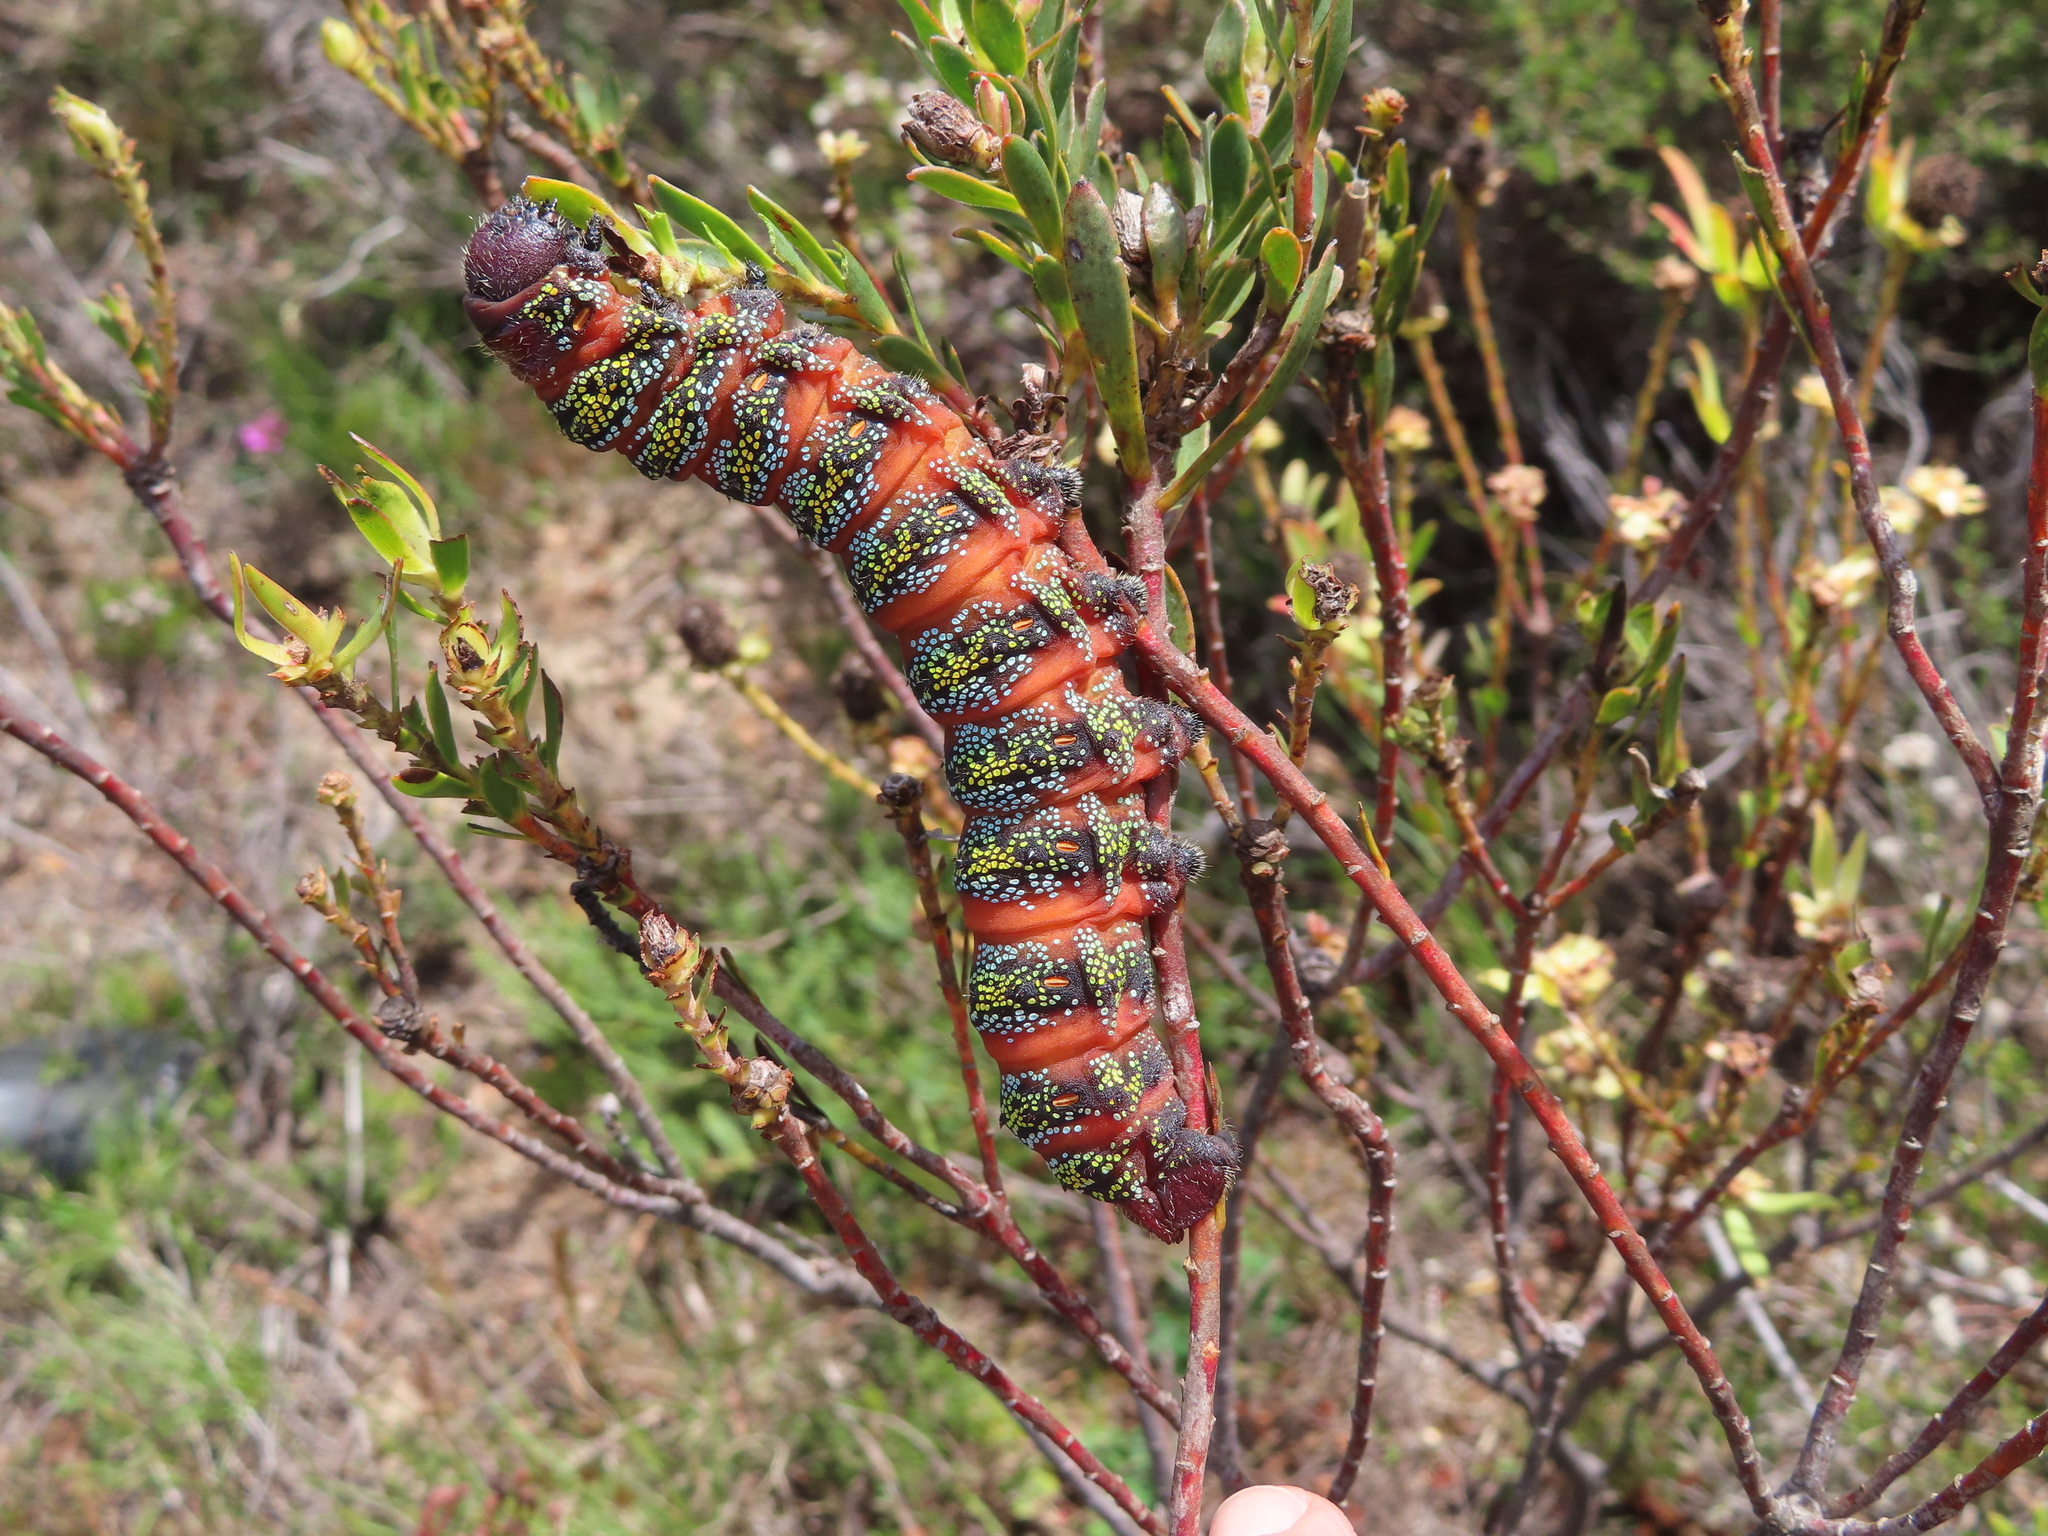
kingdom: Animalia
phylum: Arthropoda
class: Insecta
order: Lepidoptera
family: Saturniidae
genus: Nudaurelia
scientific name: Nudaurelia cytherea
